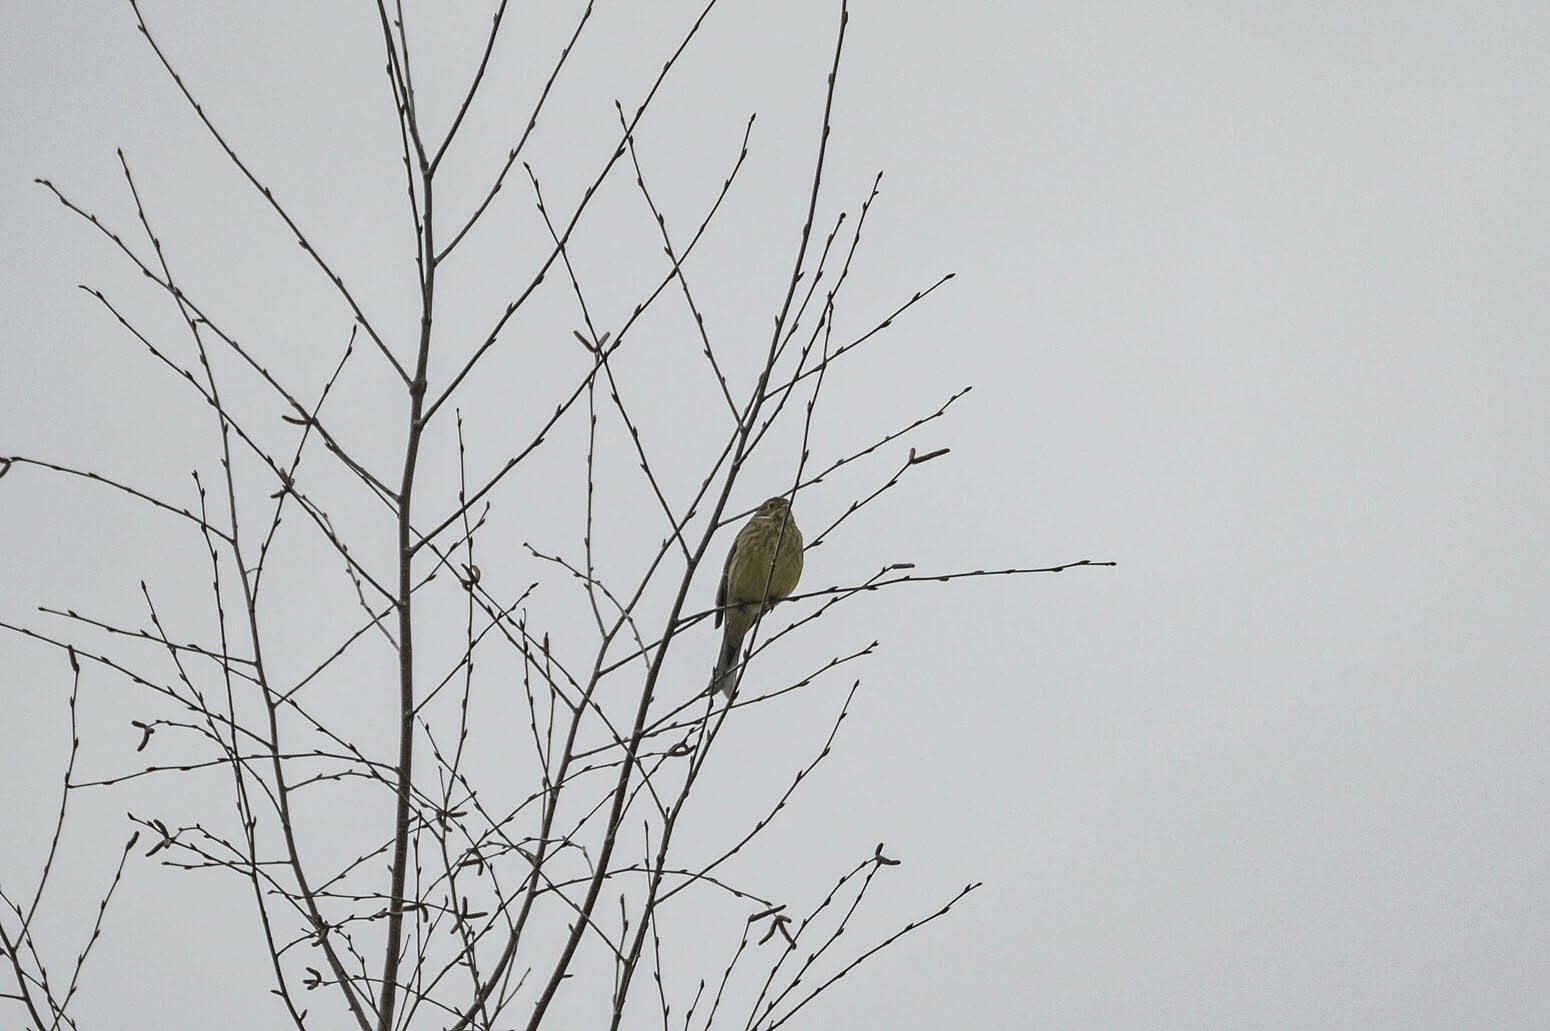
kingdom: Animalia
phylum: Chordata
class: Aves
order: Passeriformes
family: Emberizidae
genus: Emberiza
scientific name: Emberiza citrinella
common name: Yellowhammer
